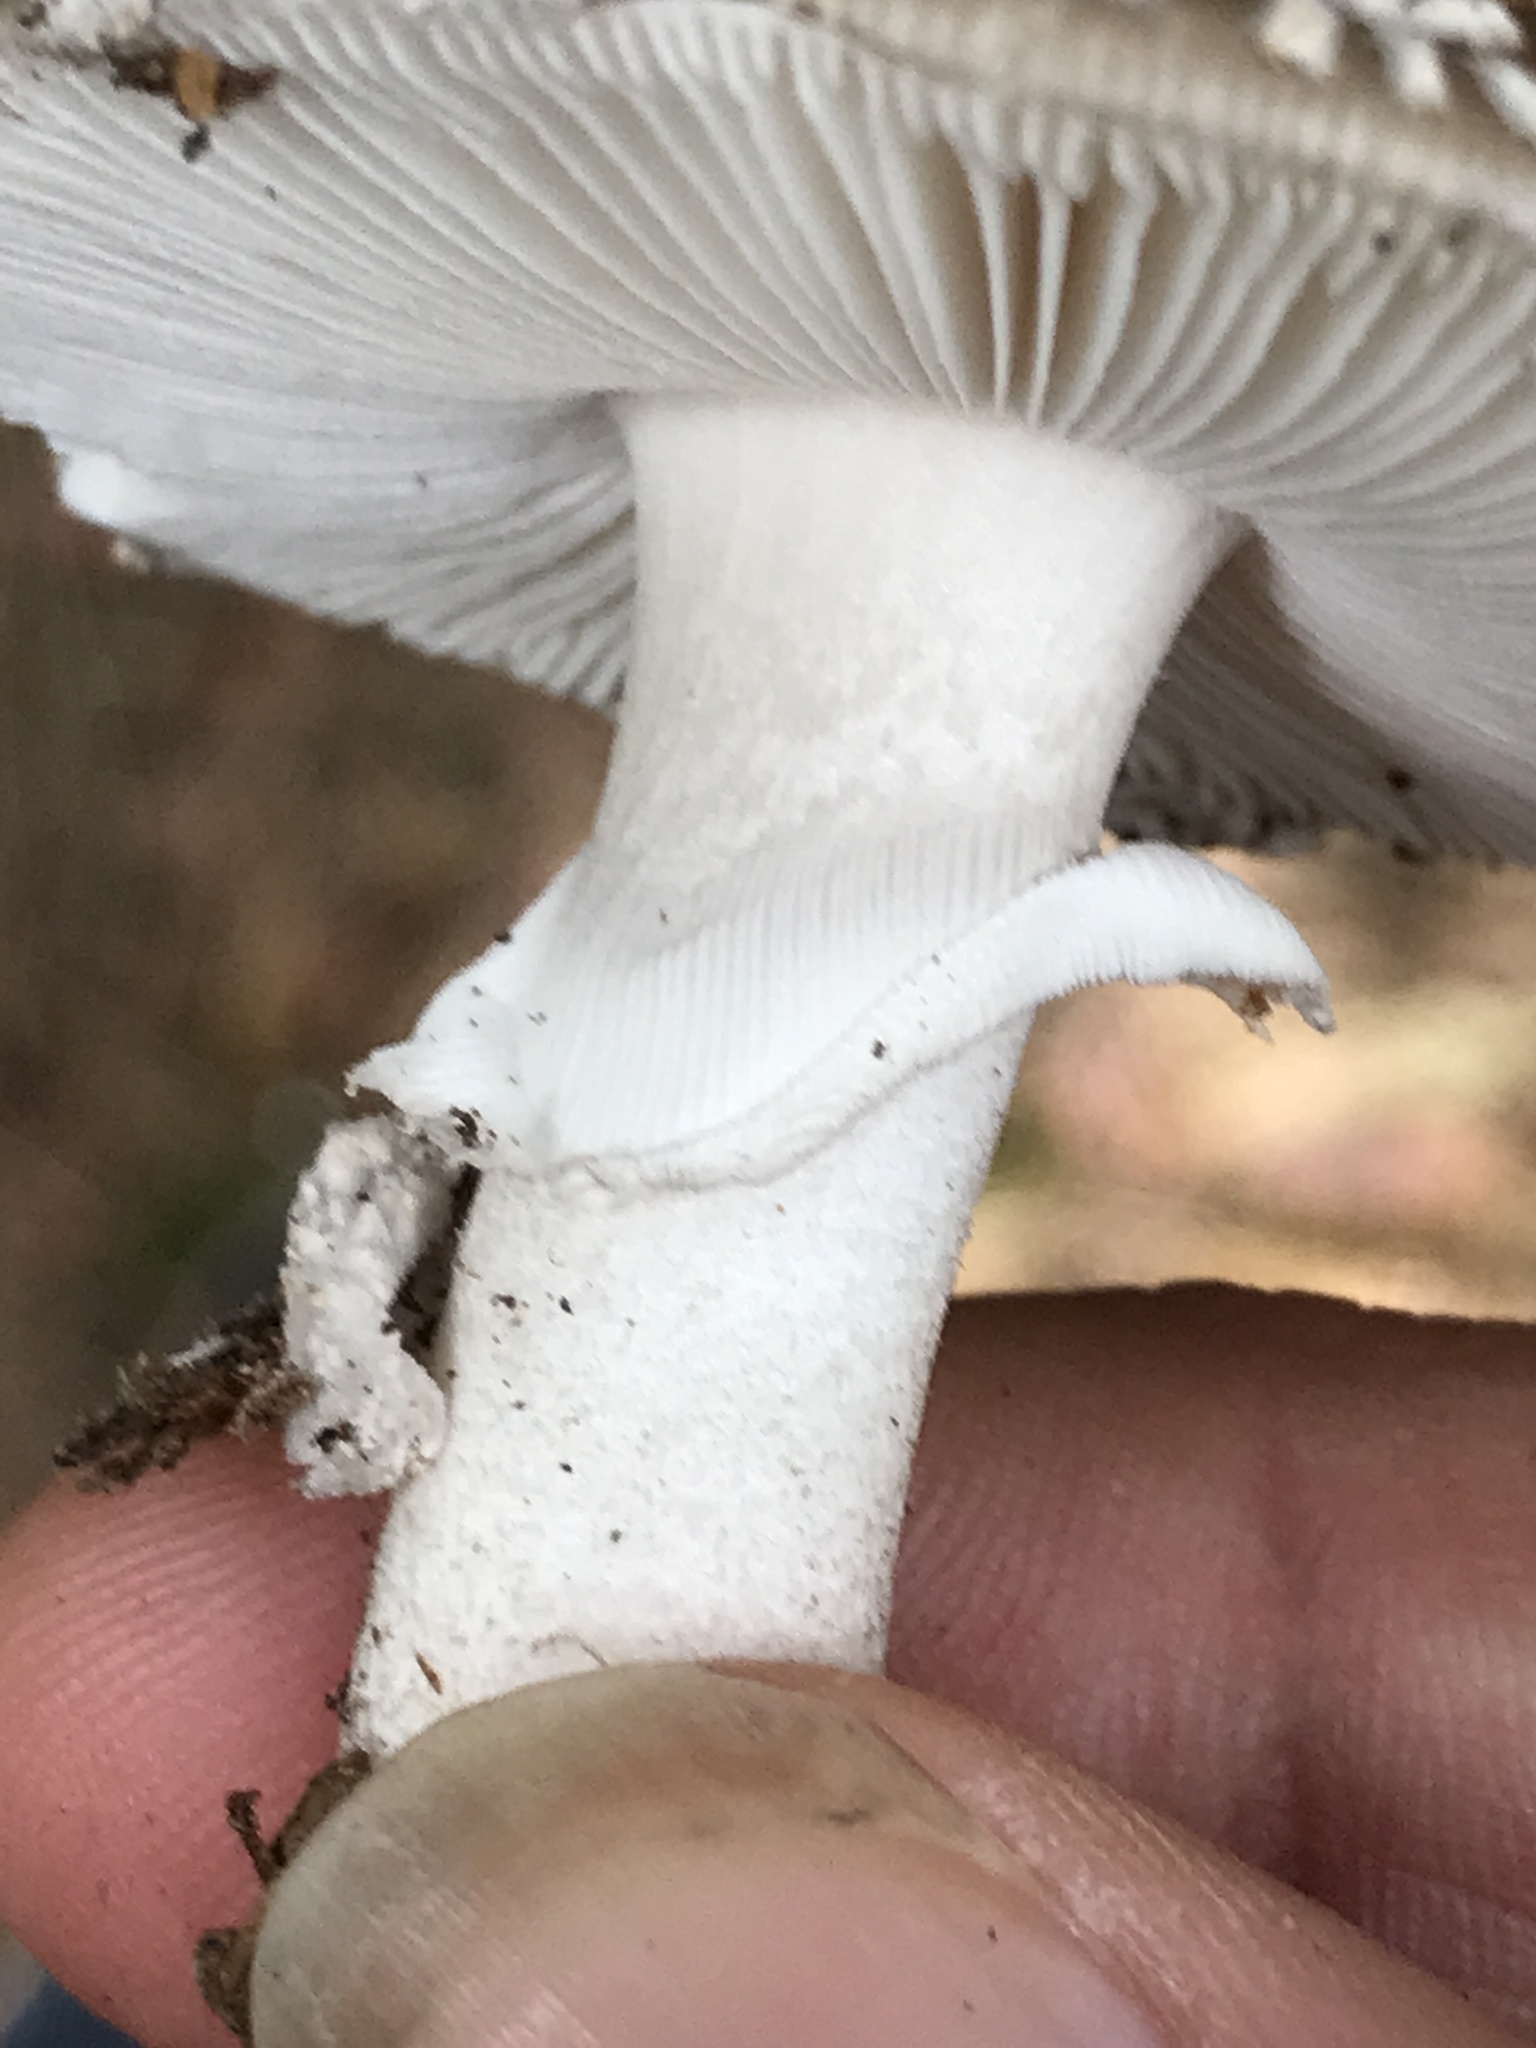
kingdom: Fungi
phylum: Basidiomycota
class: Agaricomycetes
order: Agaricales
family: Amanitaceae
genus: Amanita
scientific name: Amanita excelsa
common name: European false blusher
